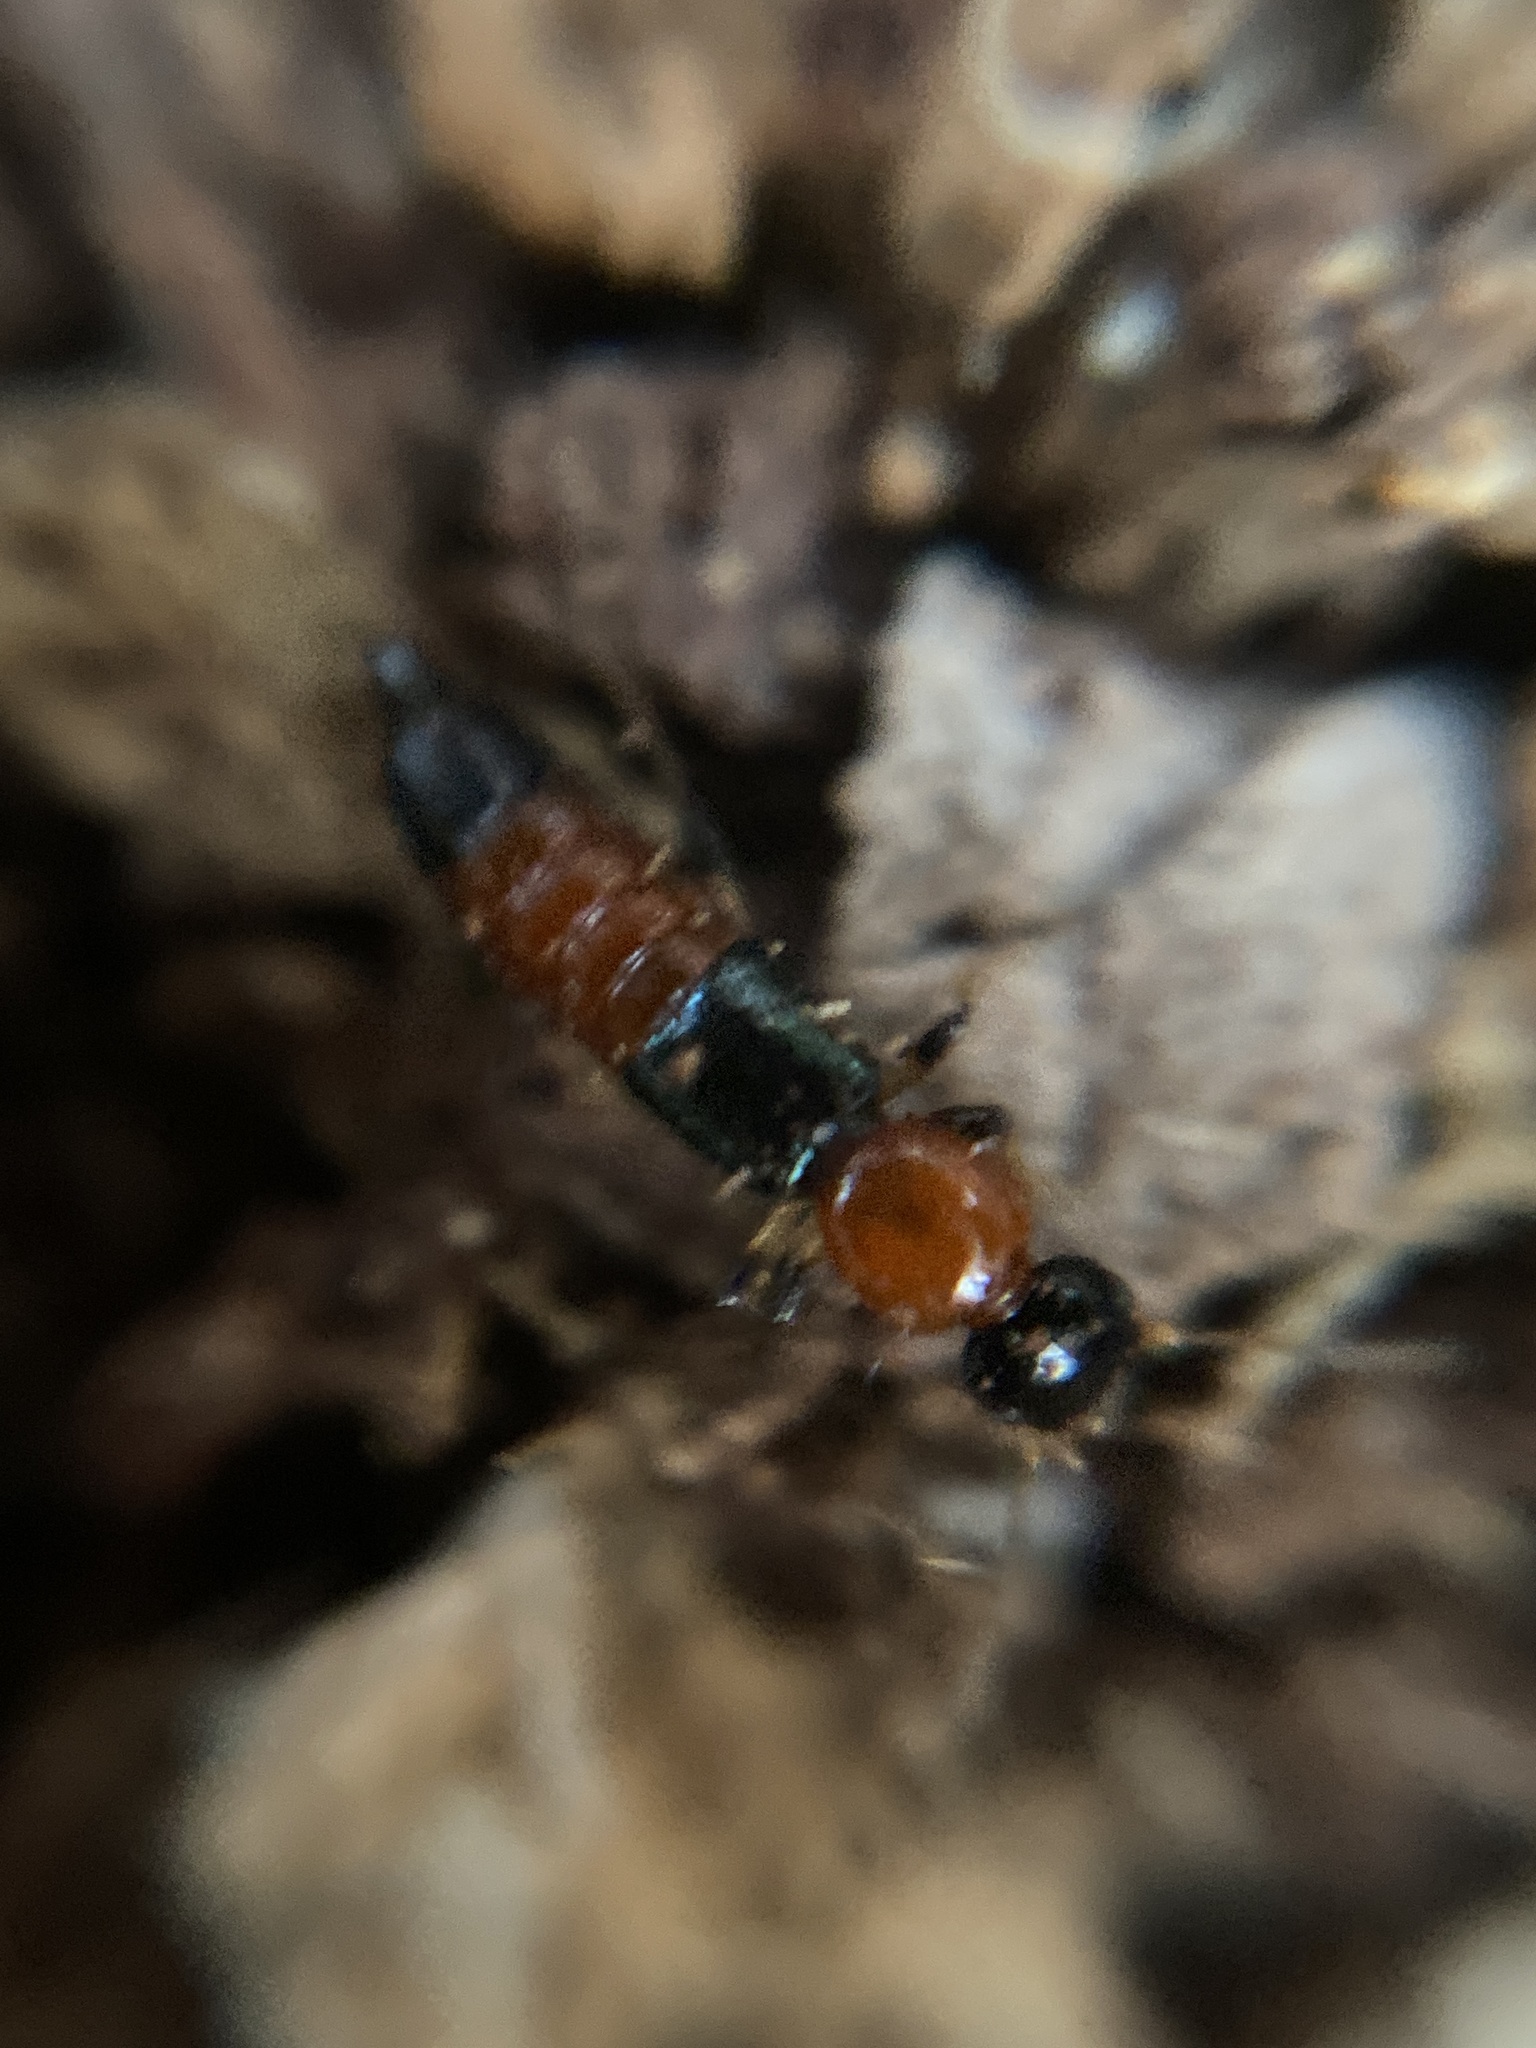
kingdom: Animalia
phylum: Arthropoda
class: Insecta
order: Coleoptera
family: Staphylinidae
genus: Paederus
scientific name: Paederus littoralis
